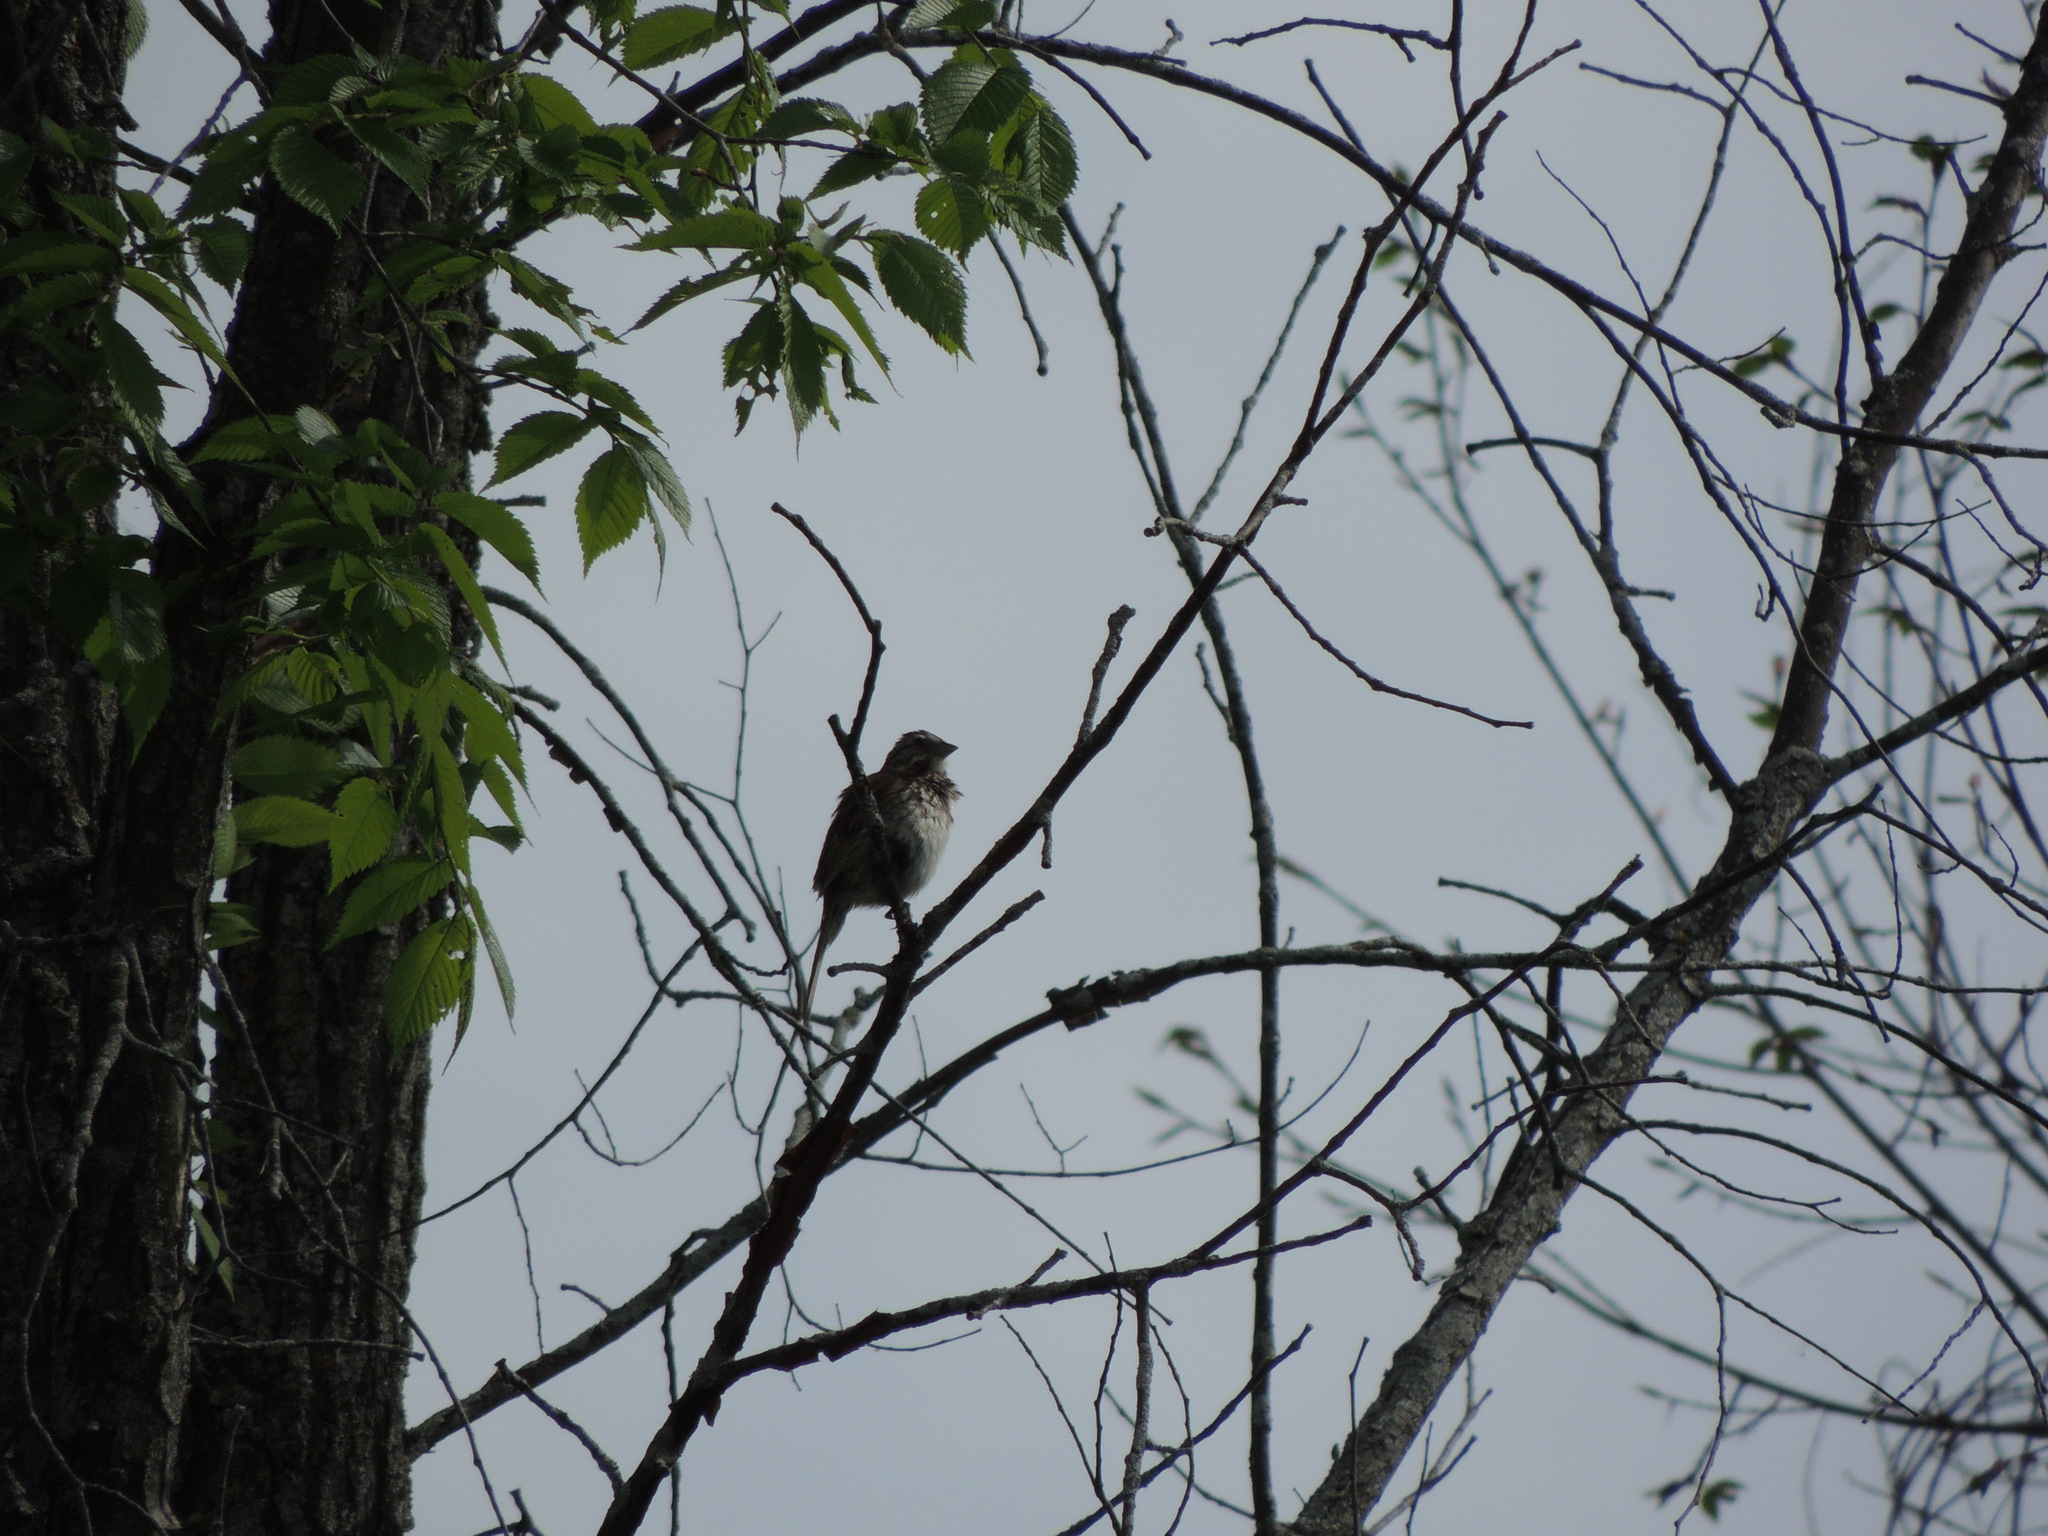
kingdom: Animalia
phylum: Chordata
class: Aves
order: Passeriformes
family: Passerellidae
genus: Melospiza
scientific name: Melospiza melodia
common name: Song sparrow
